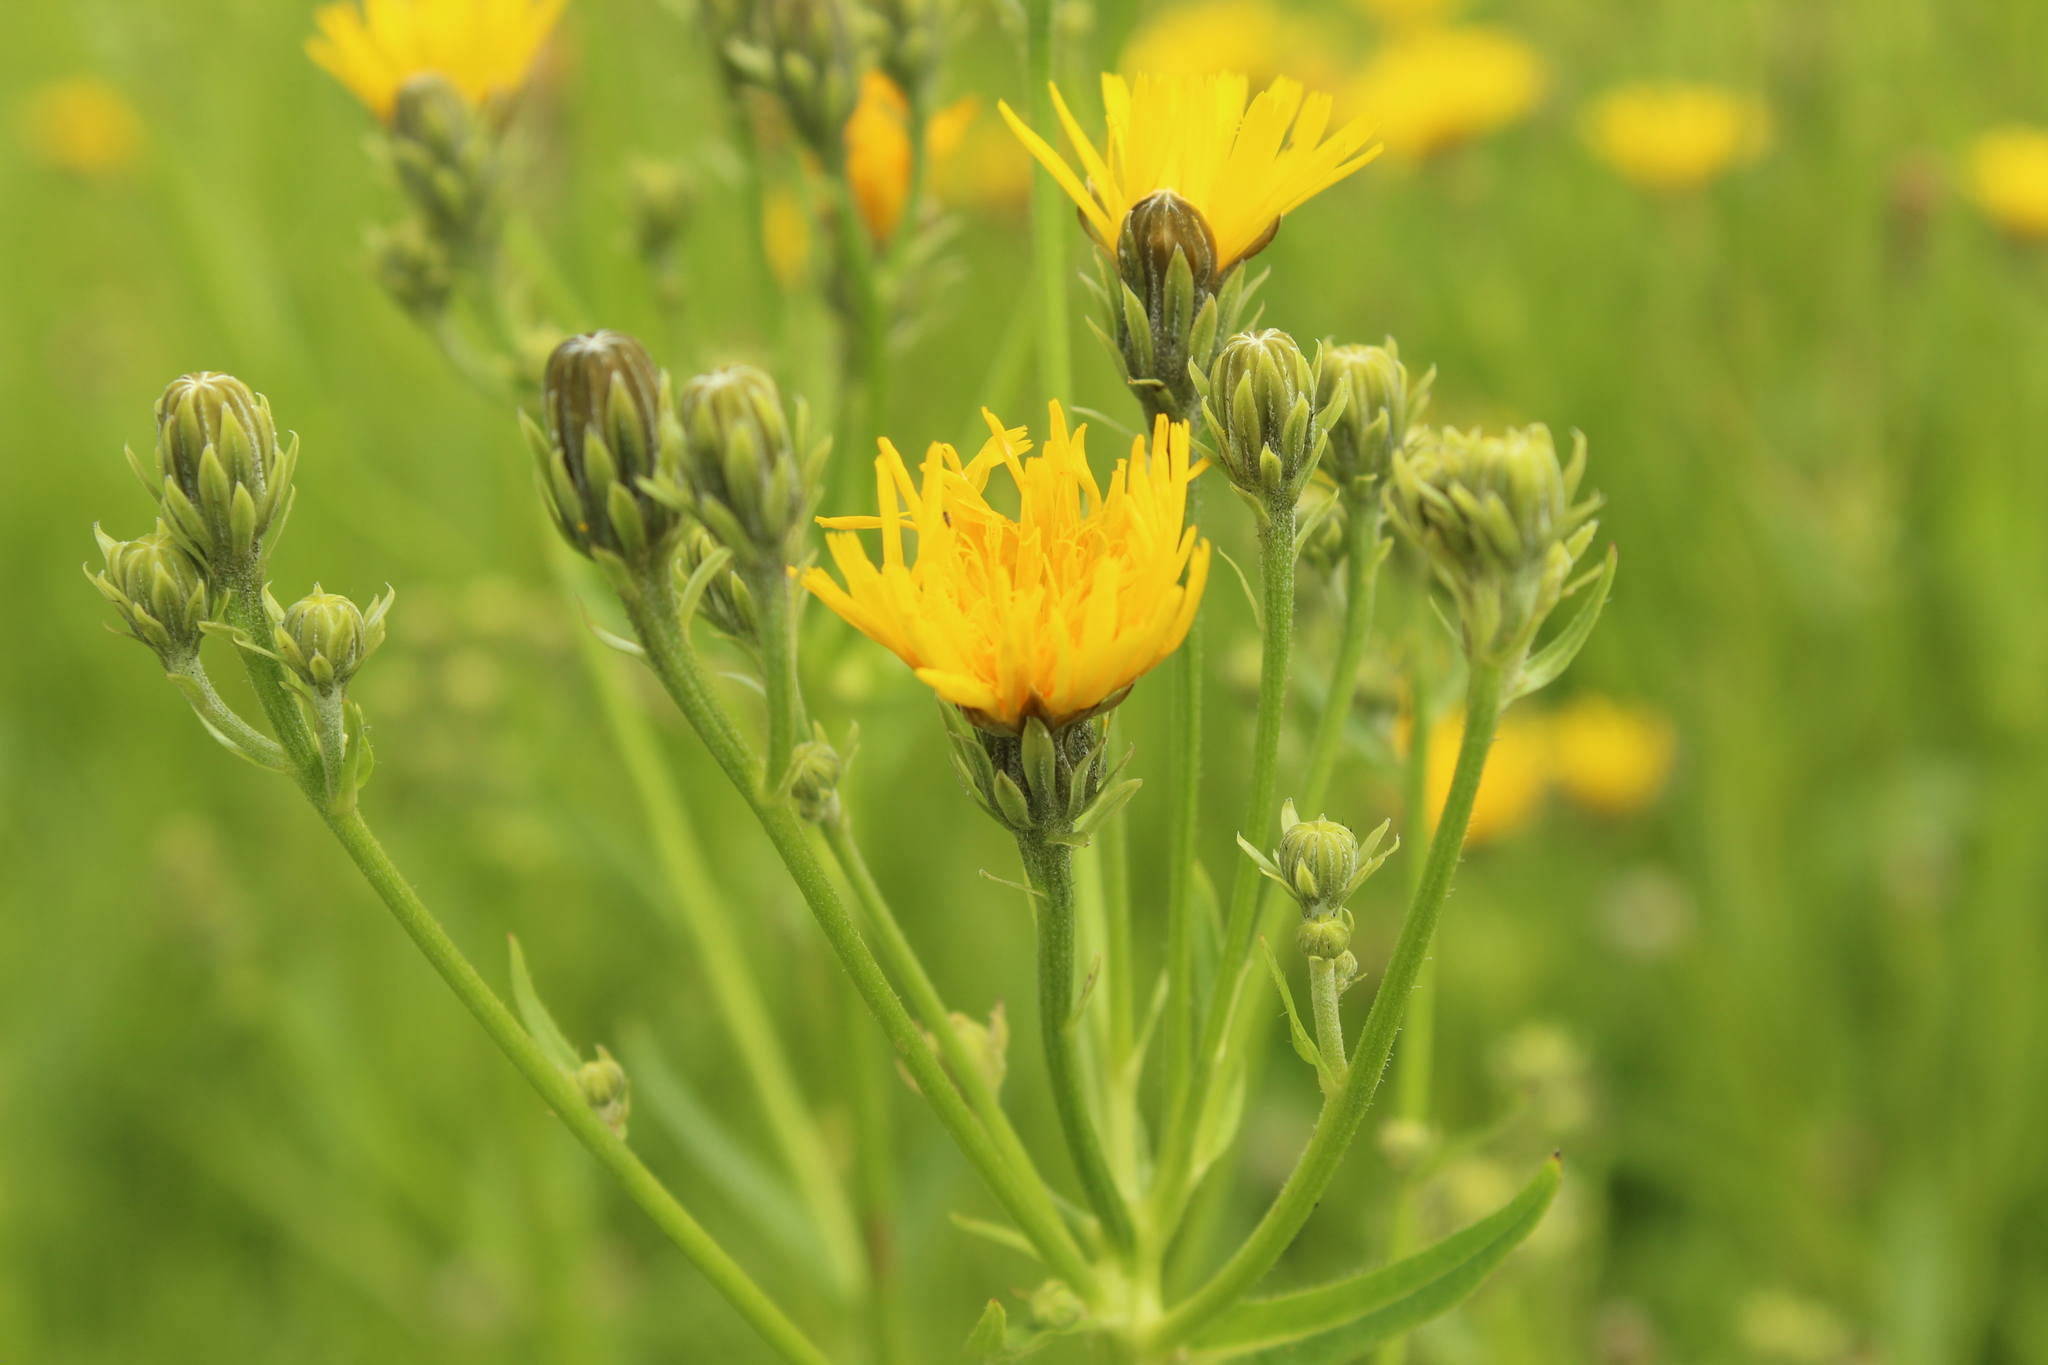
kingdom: Plantae
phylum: Tracheophyta
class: Magnoliopsida
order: Asterales
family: Asteraceae
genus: Picris
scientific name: Picris hieracioides
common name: Hawkweed oxtongue
